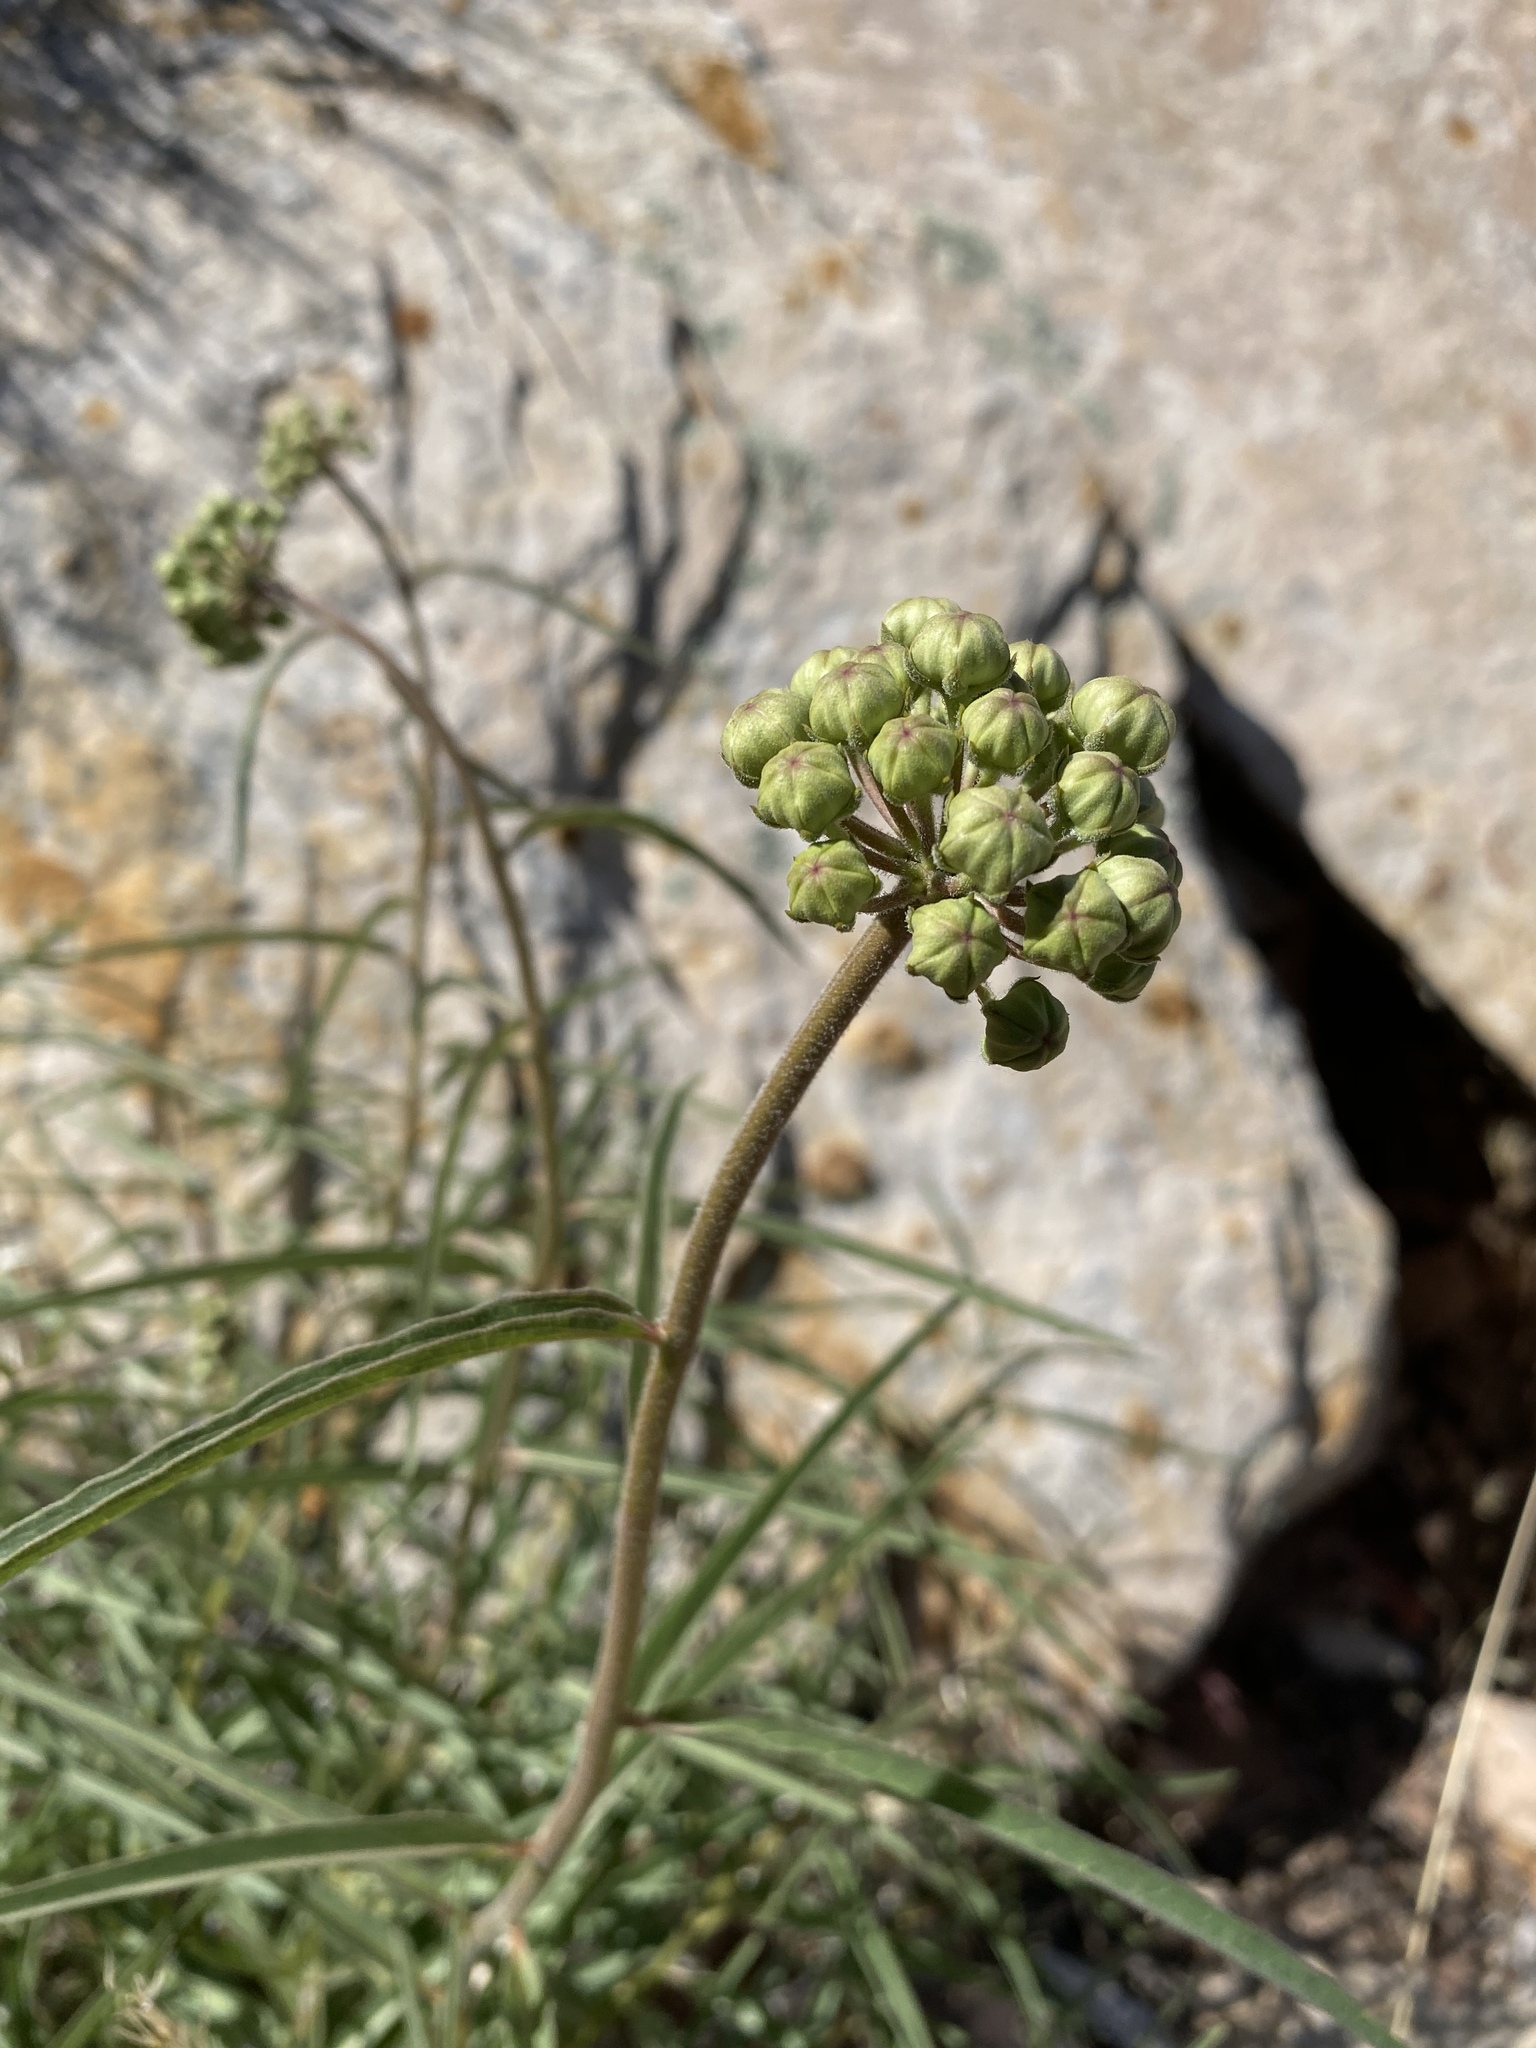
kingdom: Plantae
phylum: Tracheophyta
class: Magnoliopsida
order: Gentianales
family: Apocynaceae
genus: Asclepias
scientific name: Asclepias asperula
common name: Antelope horns
